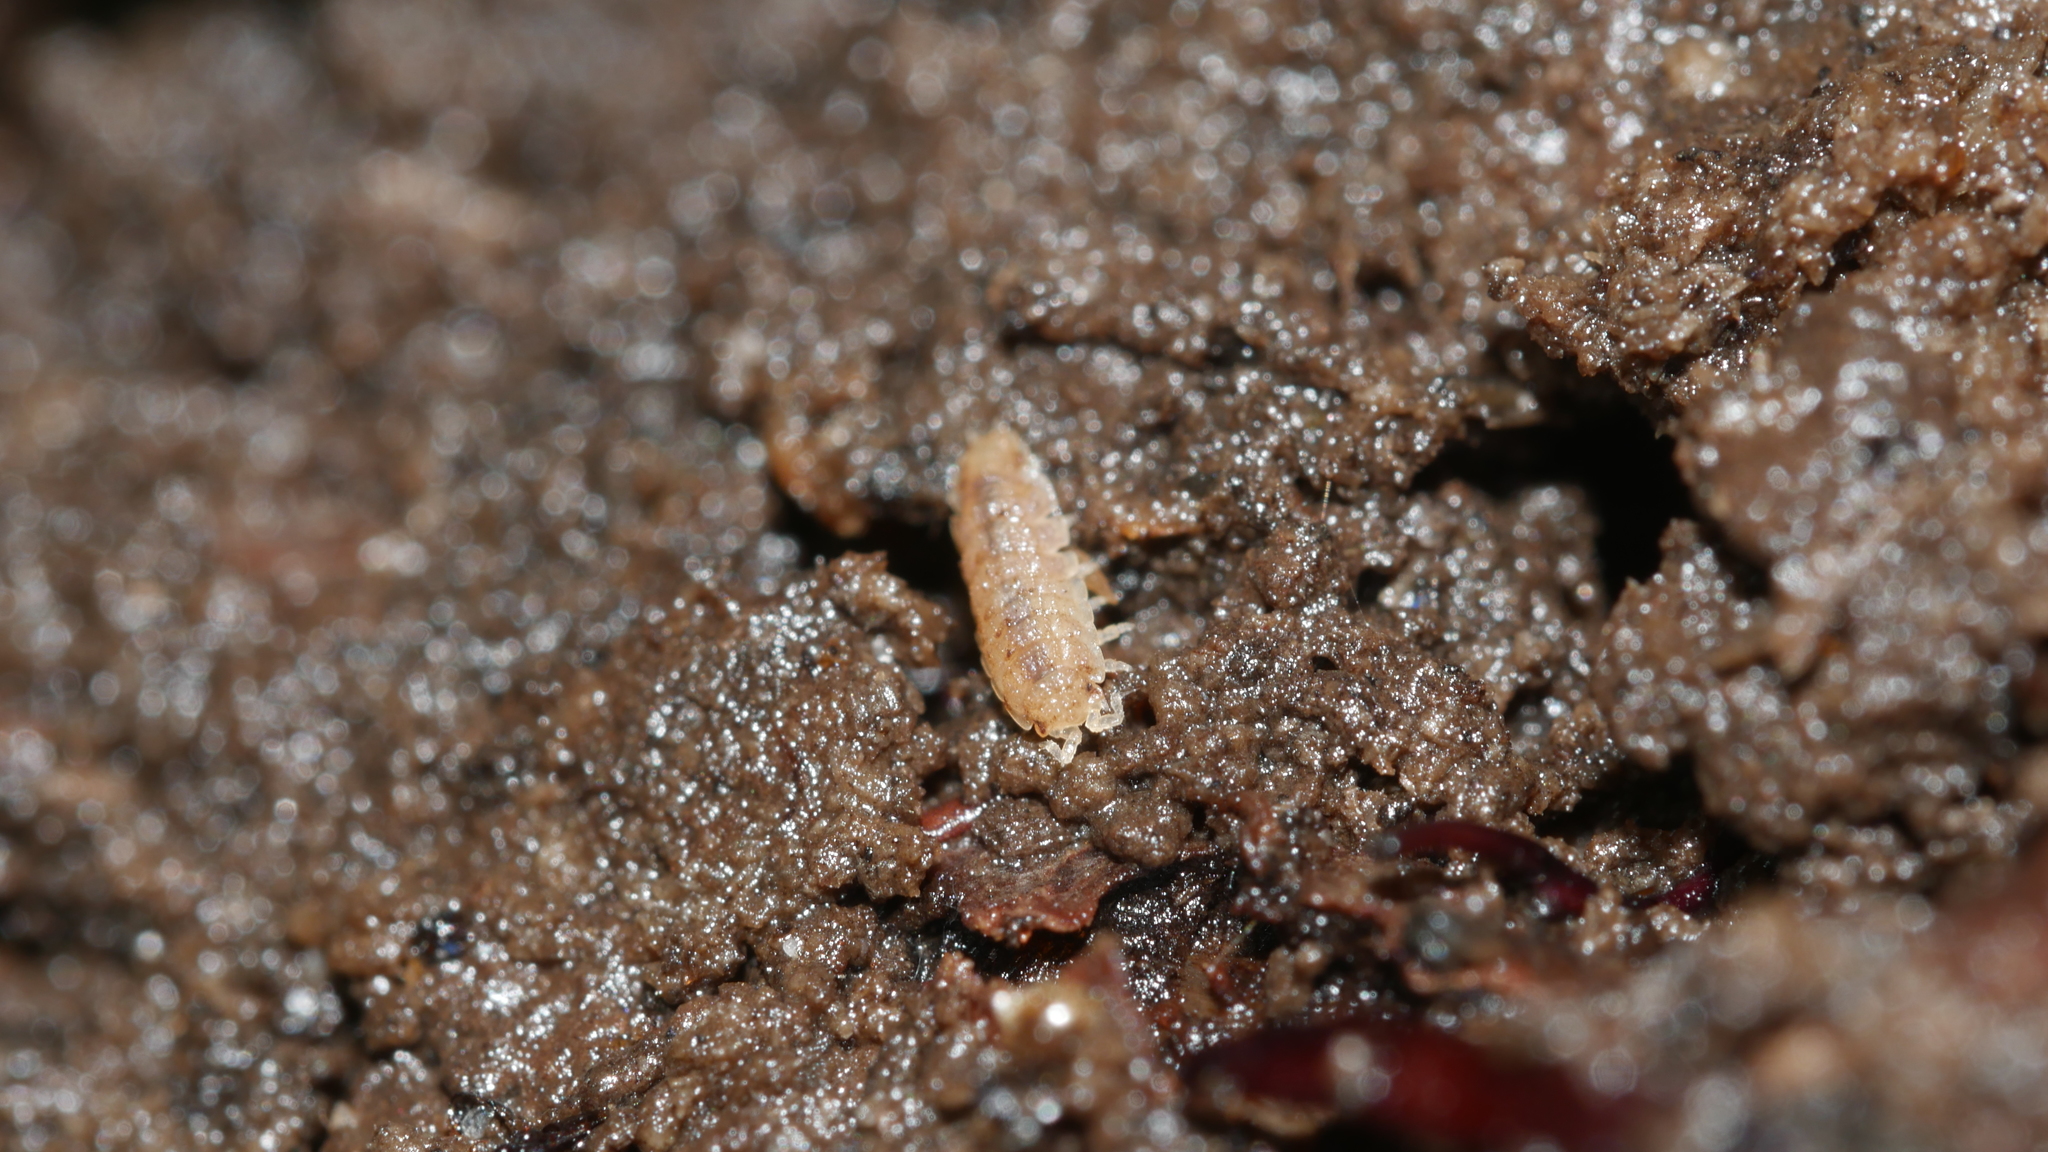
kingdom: Animalia
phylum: Arthropoda
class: Malacostraca
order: Isopoda
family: Trichoniscidae
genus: Haplophthalmus
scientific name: Haplophthalmus danicus
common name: Pillbug
